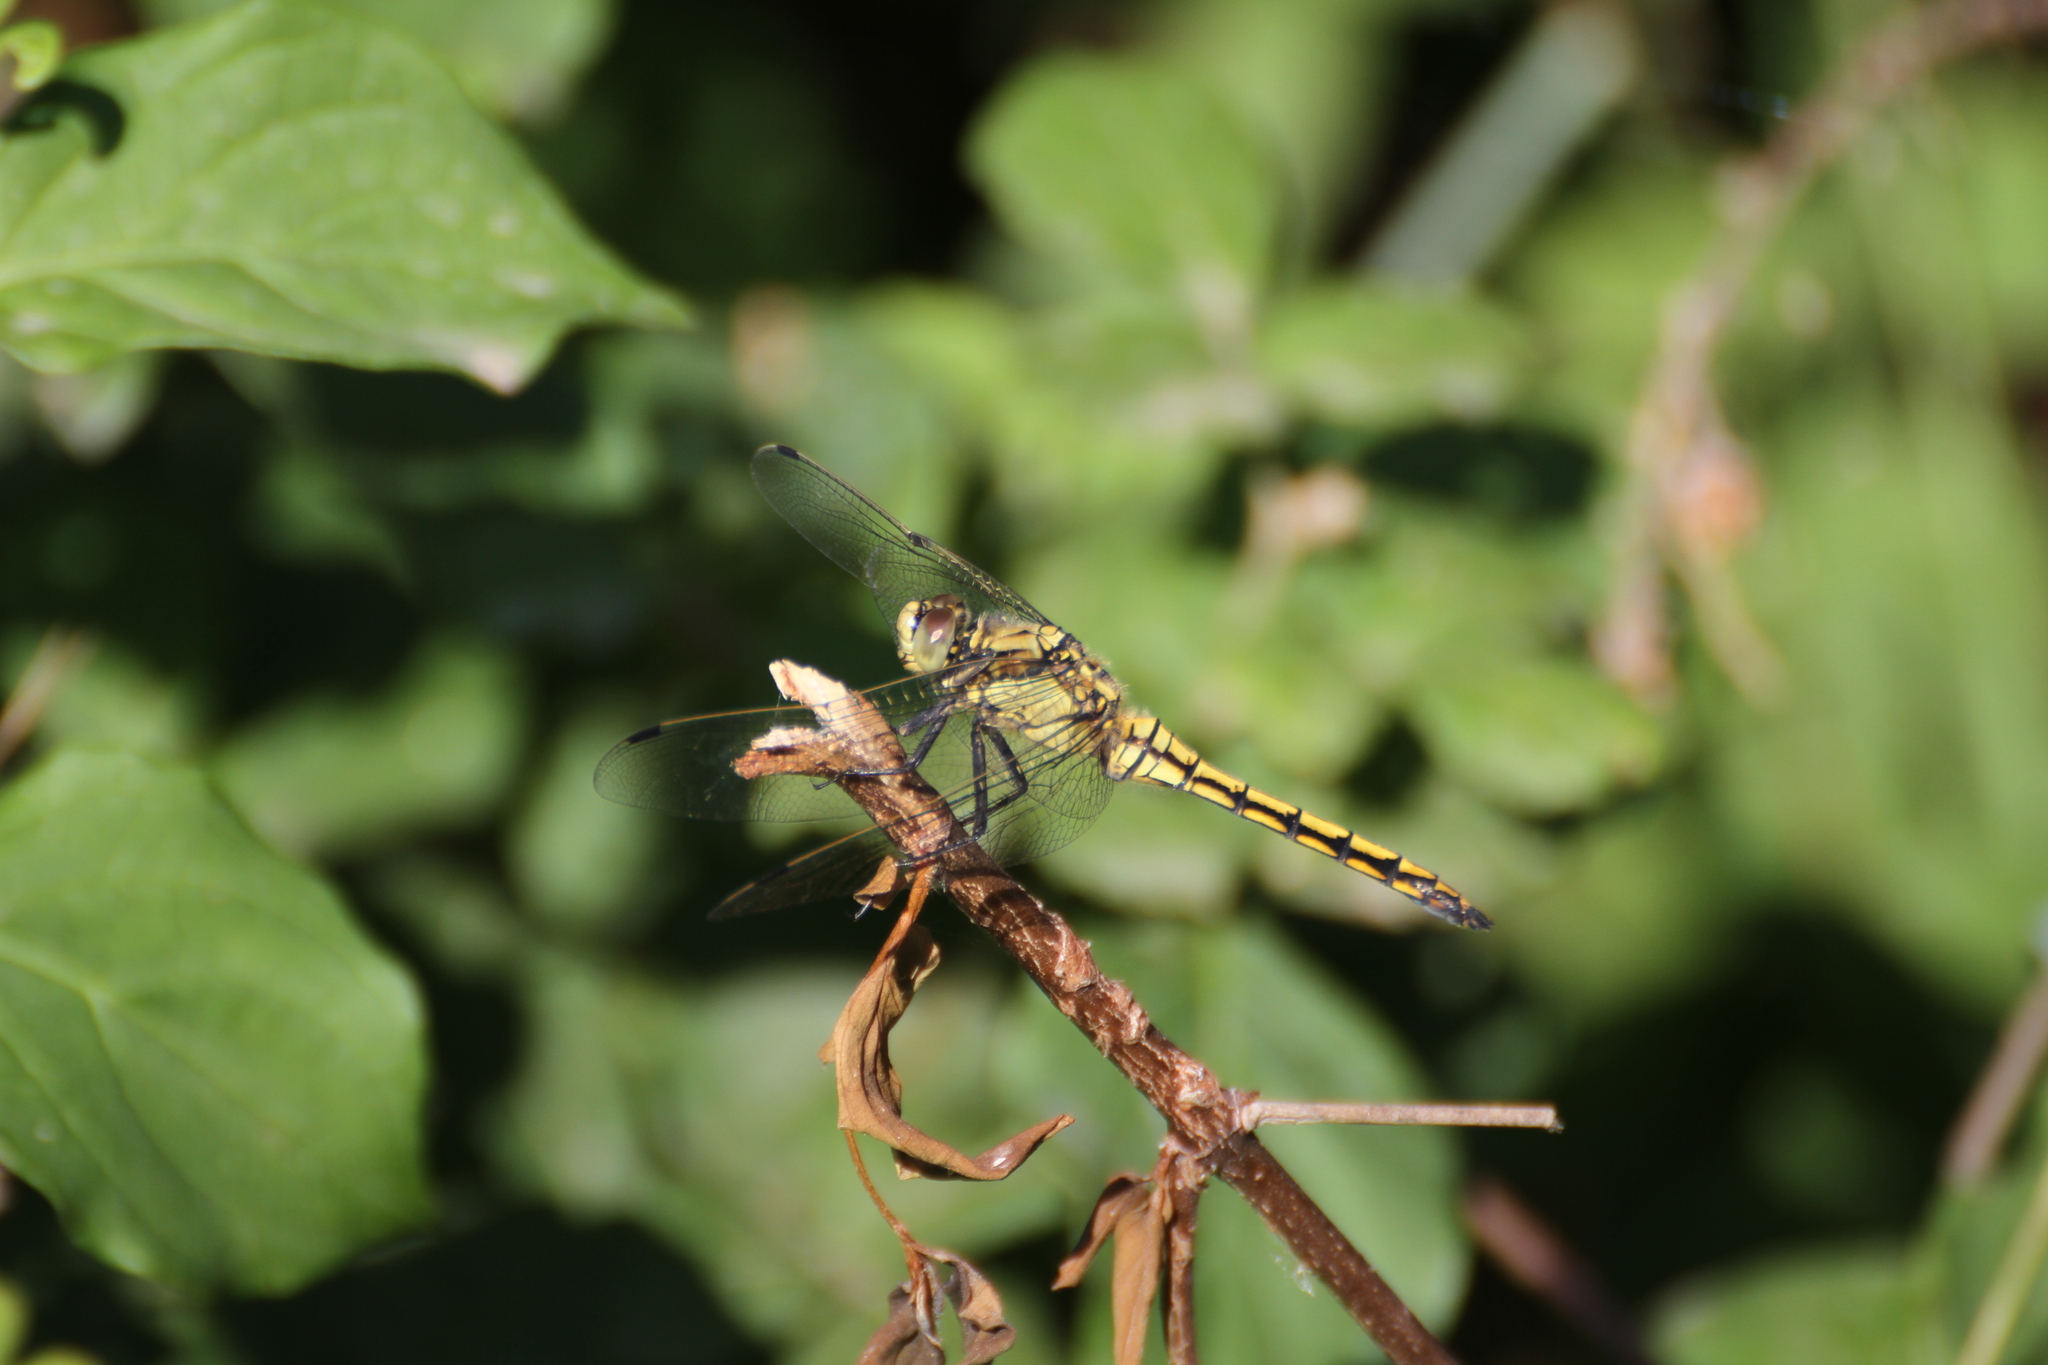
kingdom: Animalia
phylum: Arthropoda
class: Insecta
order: Odonata
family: Libellulidae
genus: Orthetrum
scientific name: Orthetrum cancellatum
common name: Black-tailed skimmer
